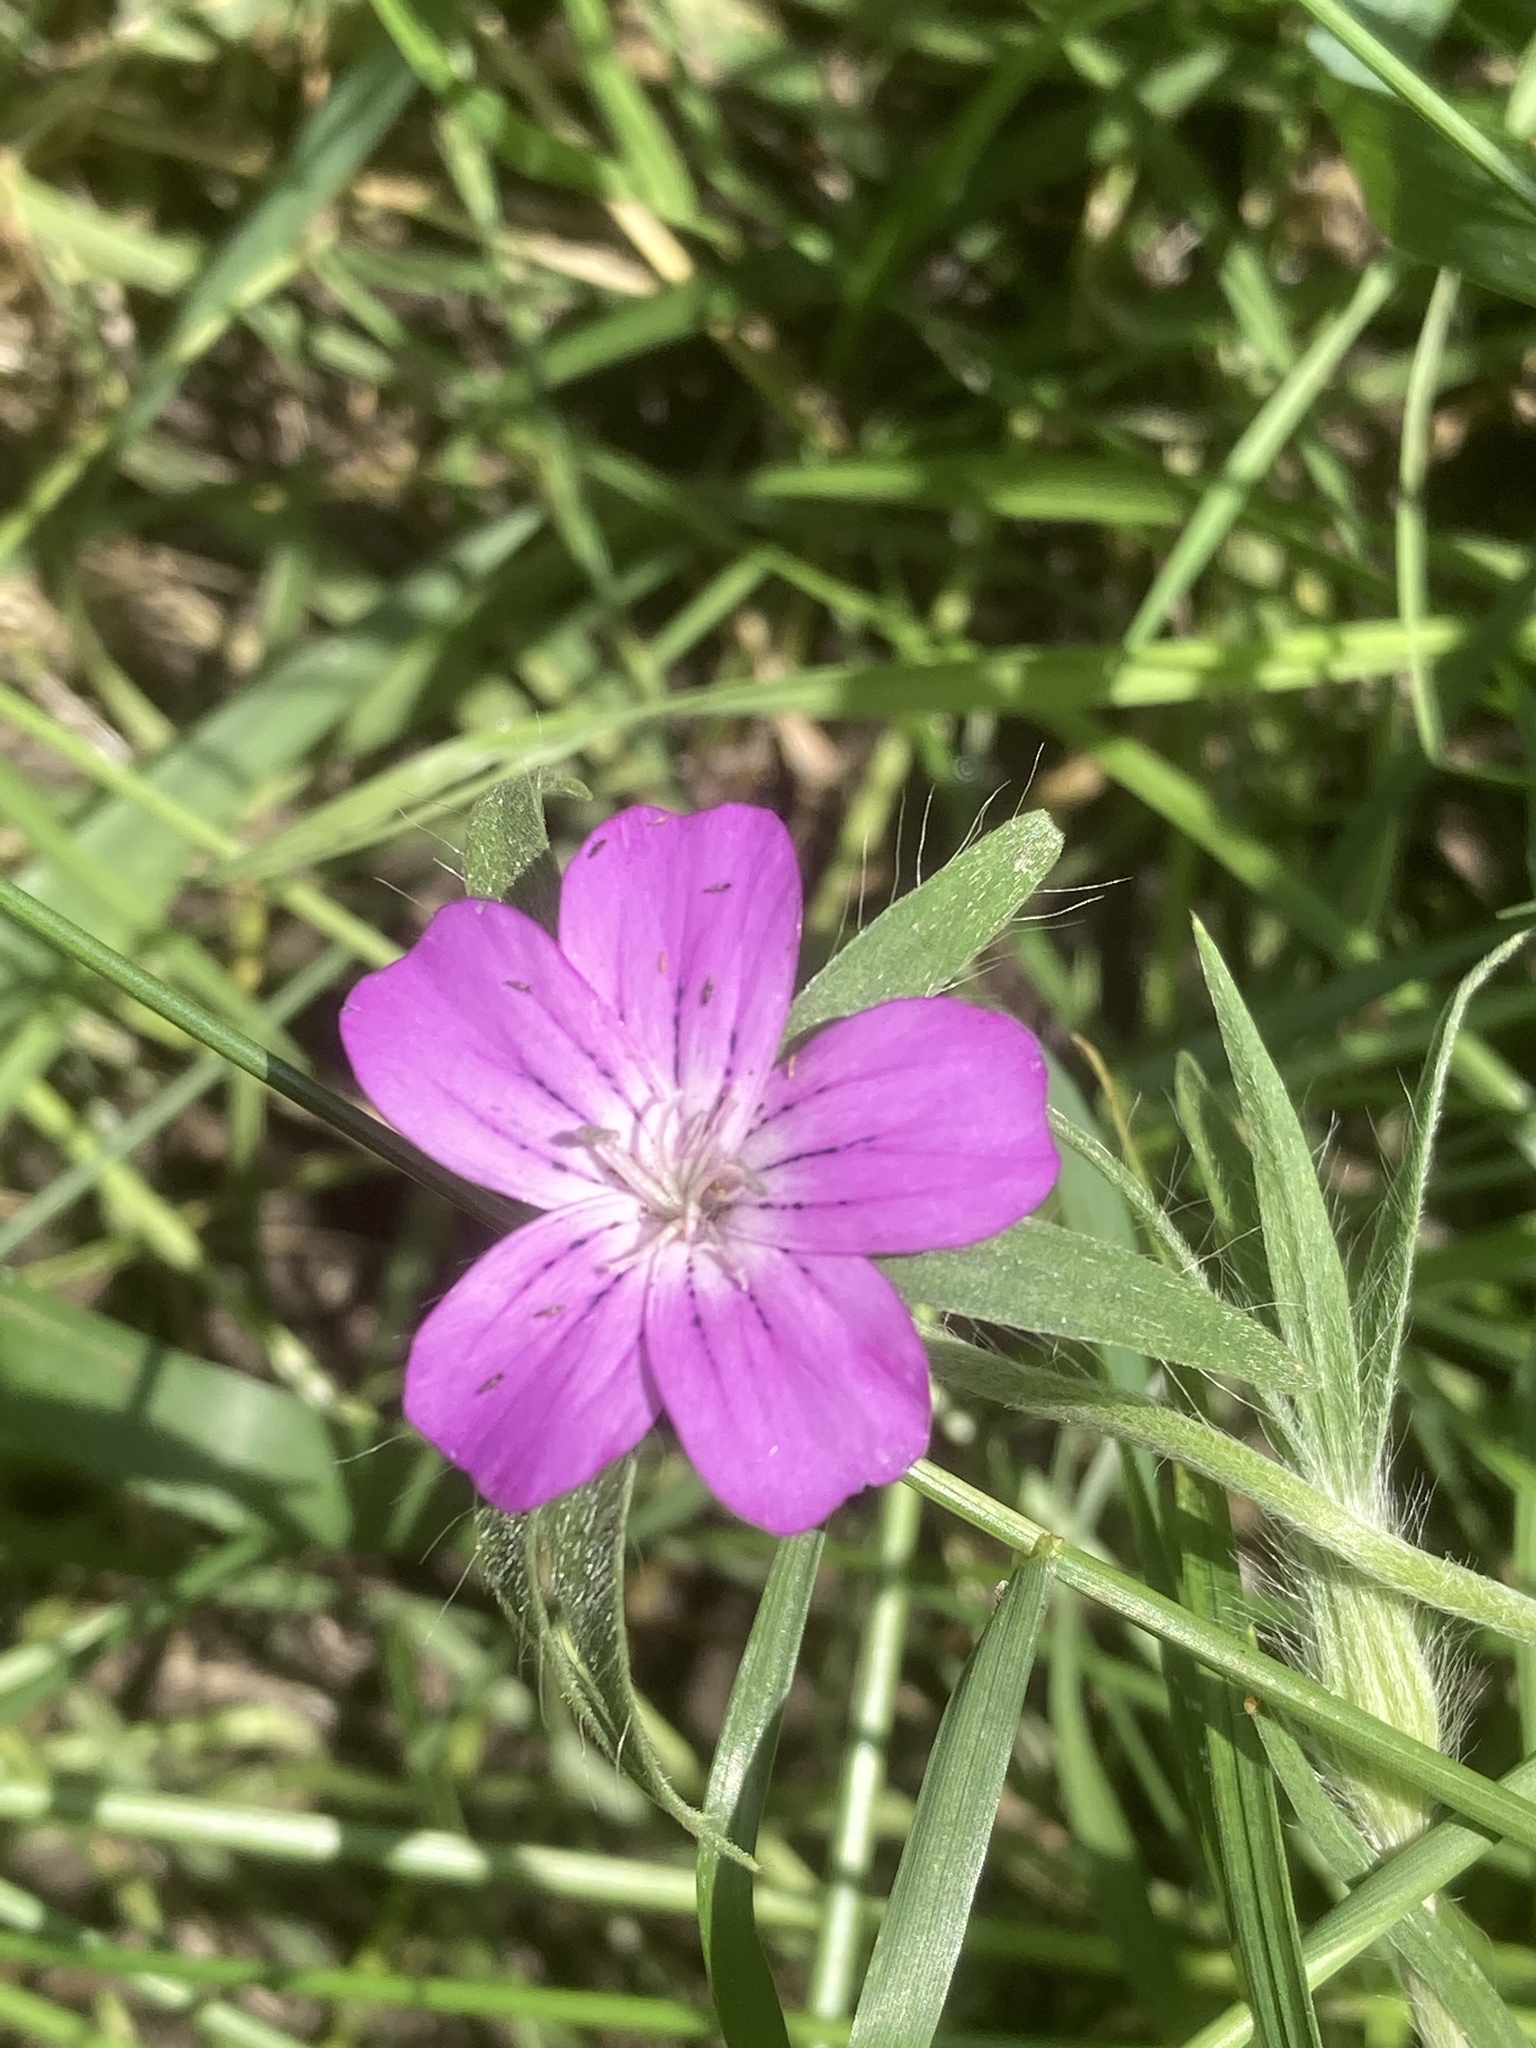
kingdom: Plantae
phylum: Tracheophyta
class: Magnoliopsida
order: Caryophyllales
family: Caryophyllaceae
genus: Agrostemma
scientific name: Agrostemma githago
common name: Common corncockle
